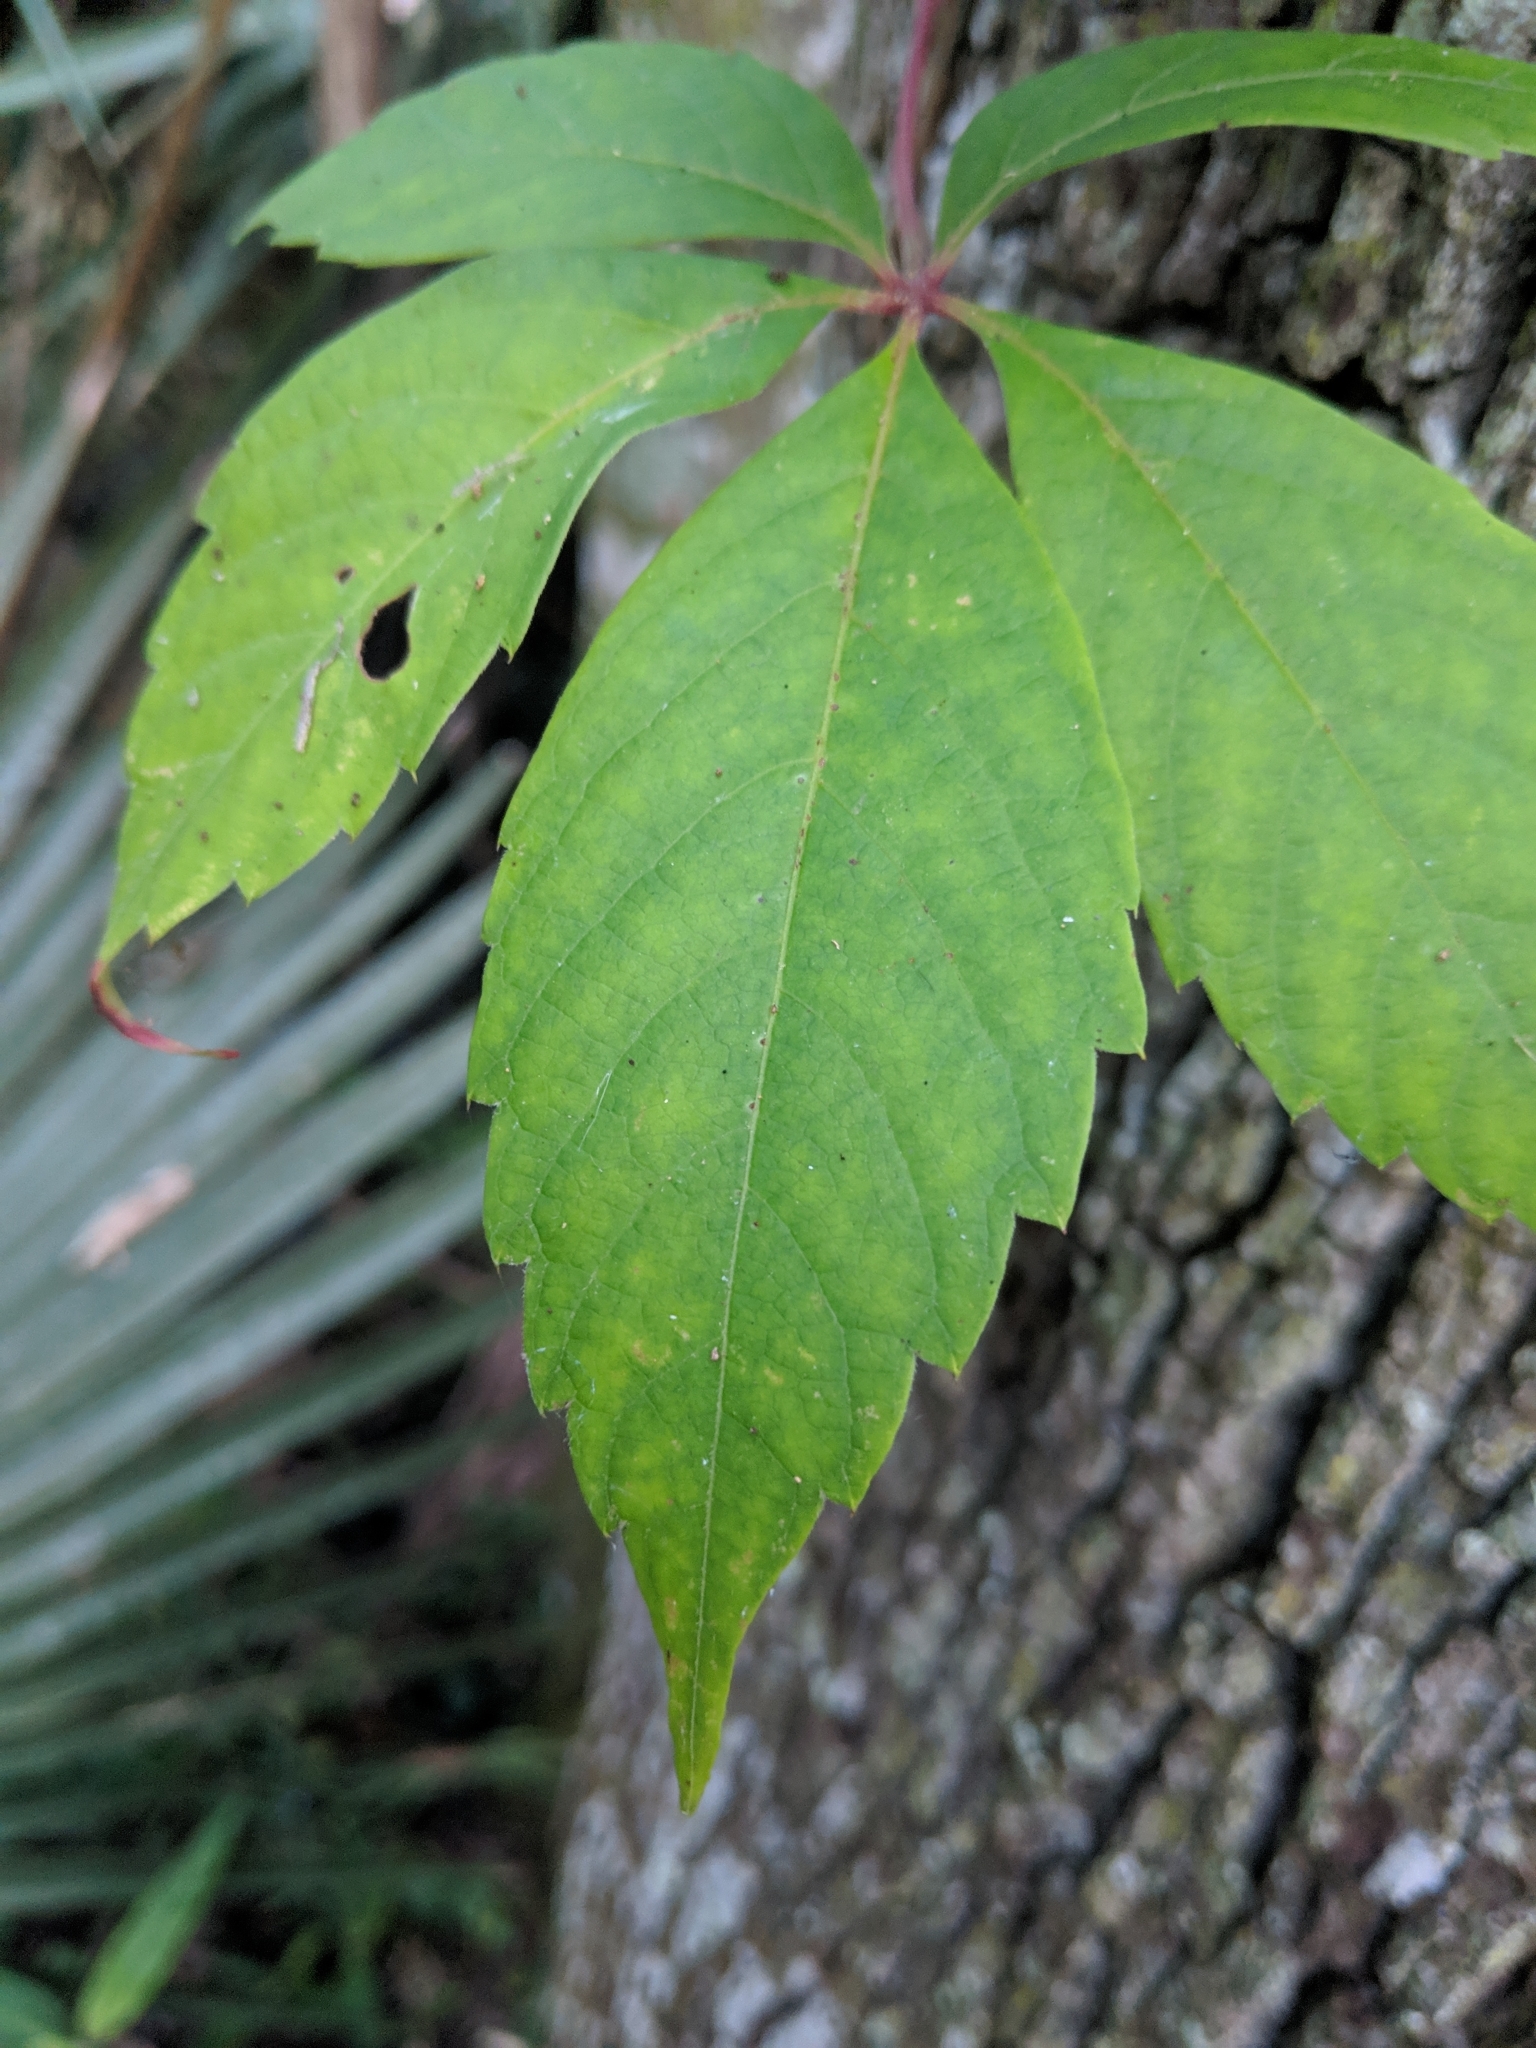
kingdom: Plantae
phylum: Tracheophyta
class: Magnoliopsida
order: Vitales
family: Vitaceae
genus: Parthenocissus
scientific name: Parthenocissus quinquefolia
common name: Virginia-creeper
